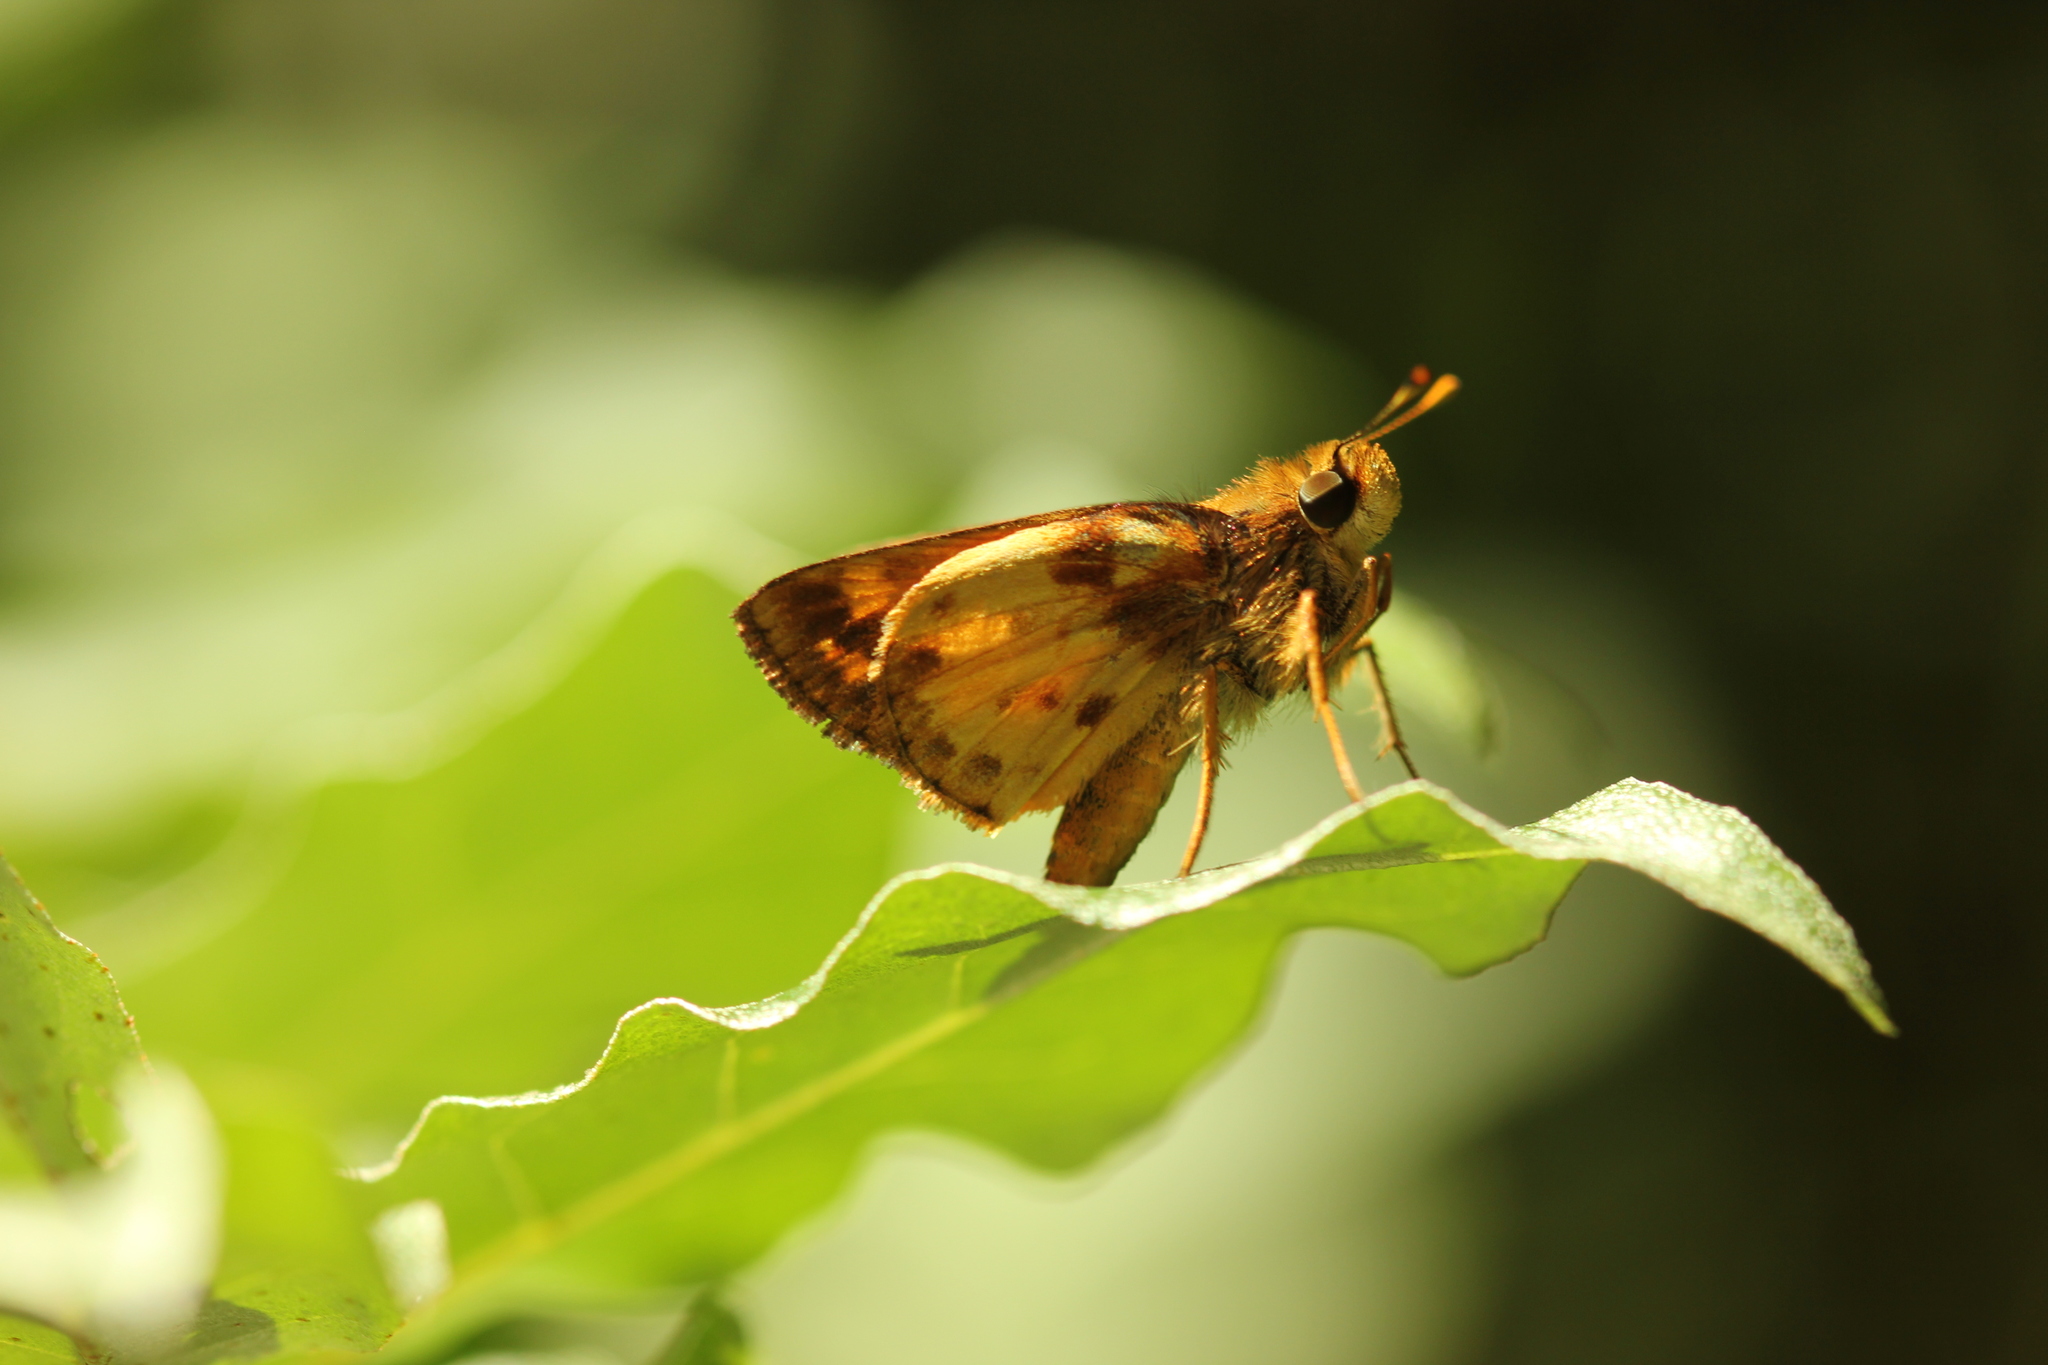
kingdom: Animalia
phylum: Arthropoda
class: Insecta
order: Lepidoptera
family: Hesperiidae
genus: Lon
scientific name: Lon zabulon
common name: Zabulon skipper
